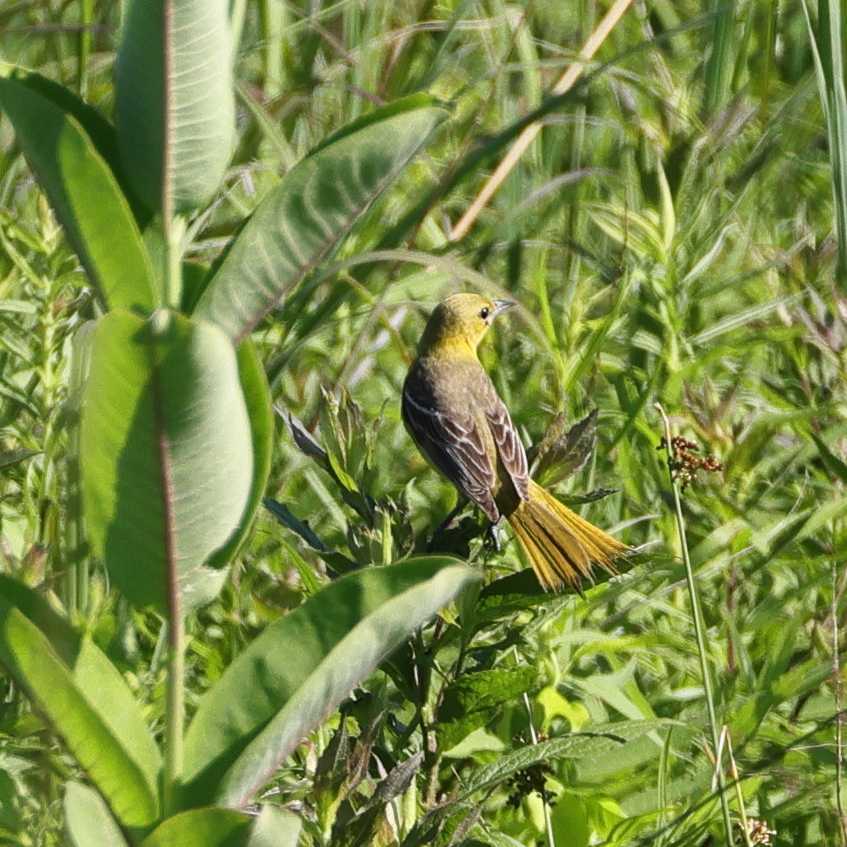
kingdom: Animalia
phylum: Chordata
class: Aves
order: Passeriformes
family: Icteridae
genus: Icterus
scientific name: Icterus spurius
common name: Orchard oriole
